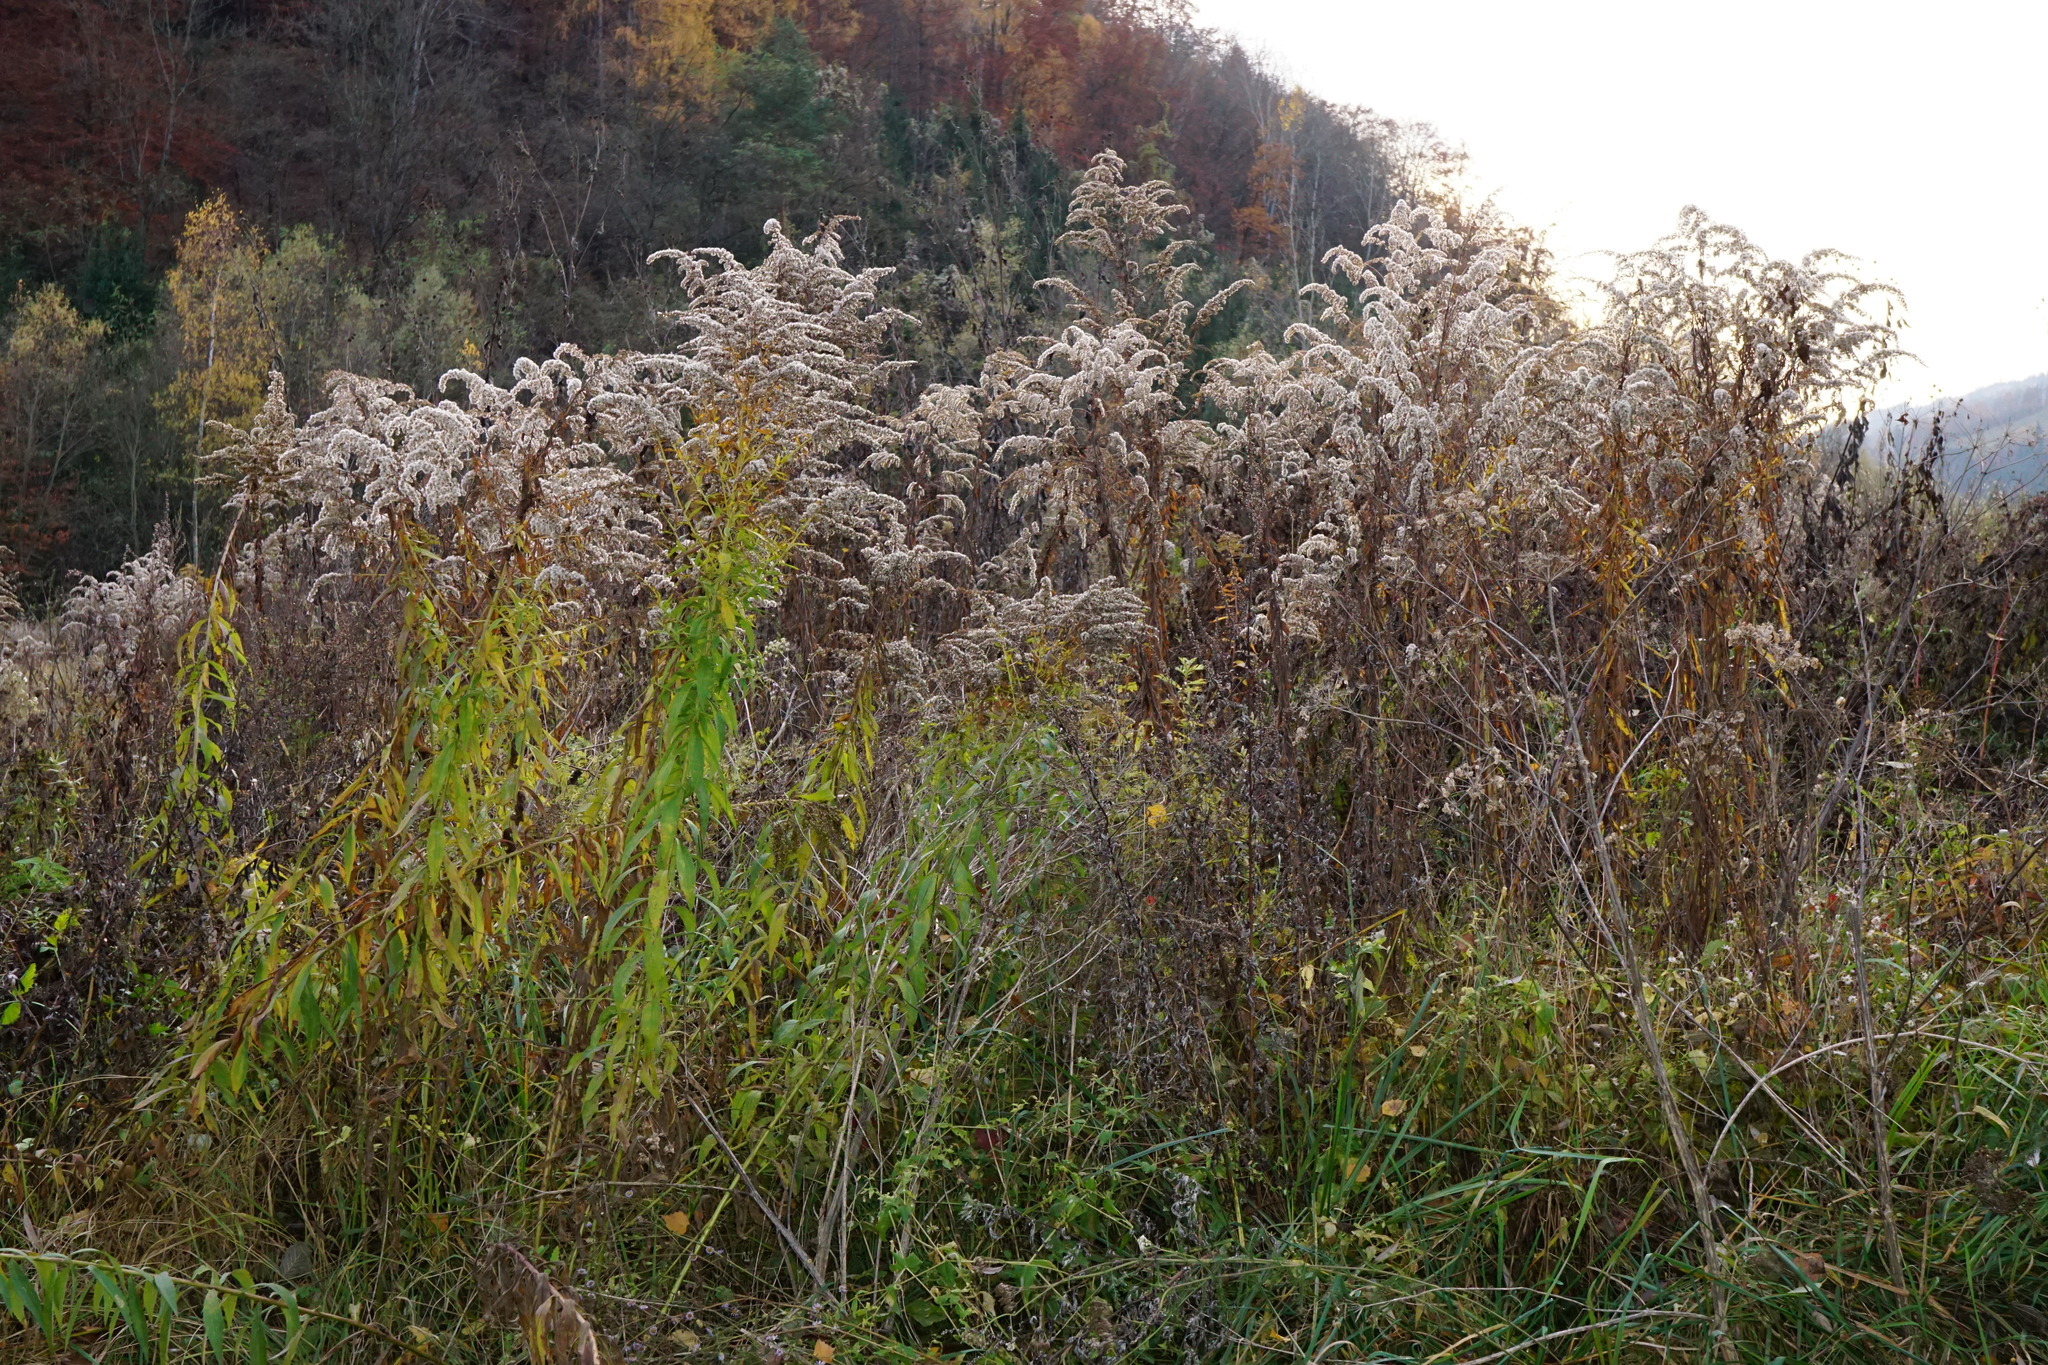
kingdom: Plantae
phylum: Tracheophyta
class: Magnoliopsida
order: Asterales
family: Asteraceae
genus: Solidago
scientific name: Solidago canadensis
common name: Canada goldenrod
